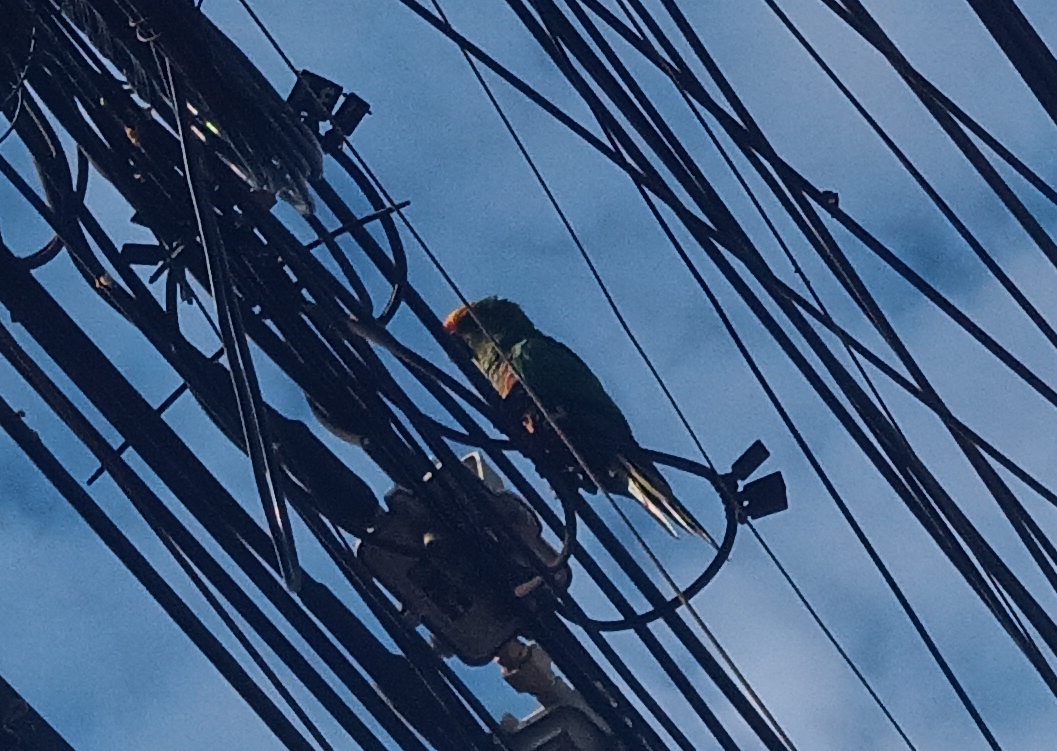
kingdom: Animalia
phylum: Chordata
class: Aves
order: Psittaciformes
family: Psittacidae
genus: Aratinga
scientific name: Aratinga auricapillus
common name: Golden-capped parakeet
